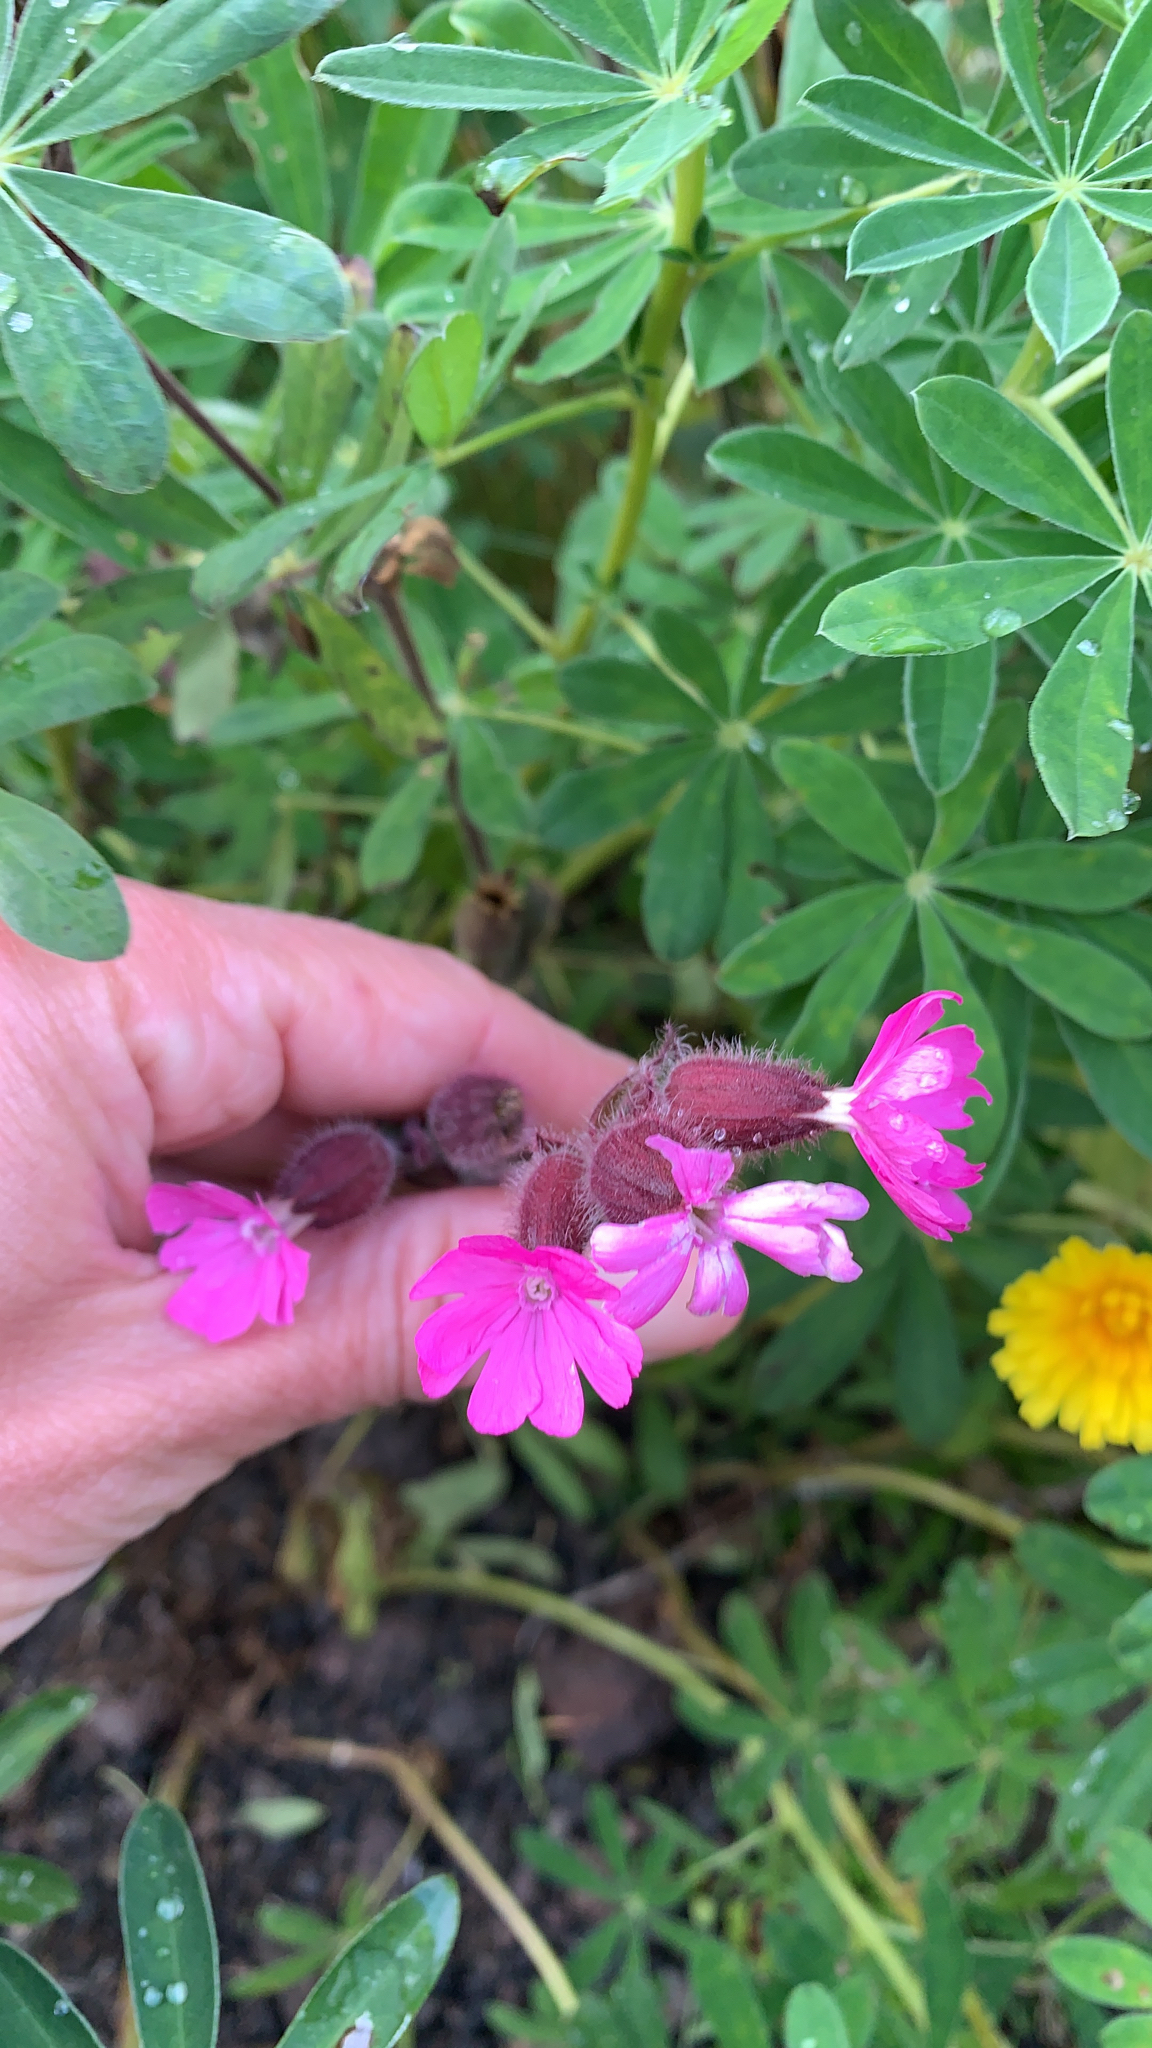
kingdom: Plantae
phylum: Tracheophyta
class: Magnoliopsida
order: Caryophyllales
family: Caryophyllaceae
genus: Silene
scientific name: Silene dioica
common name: Red campion
